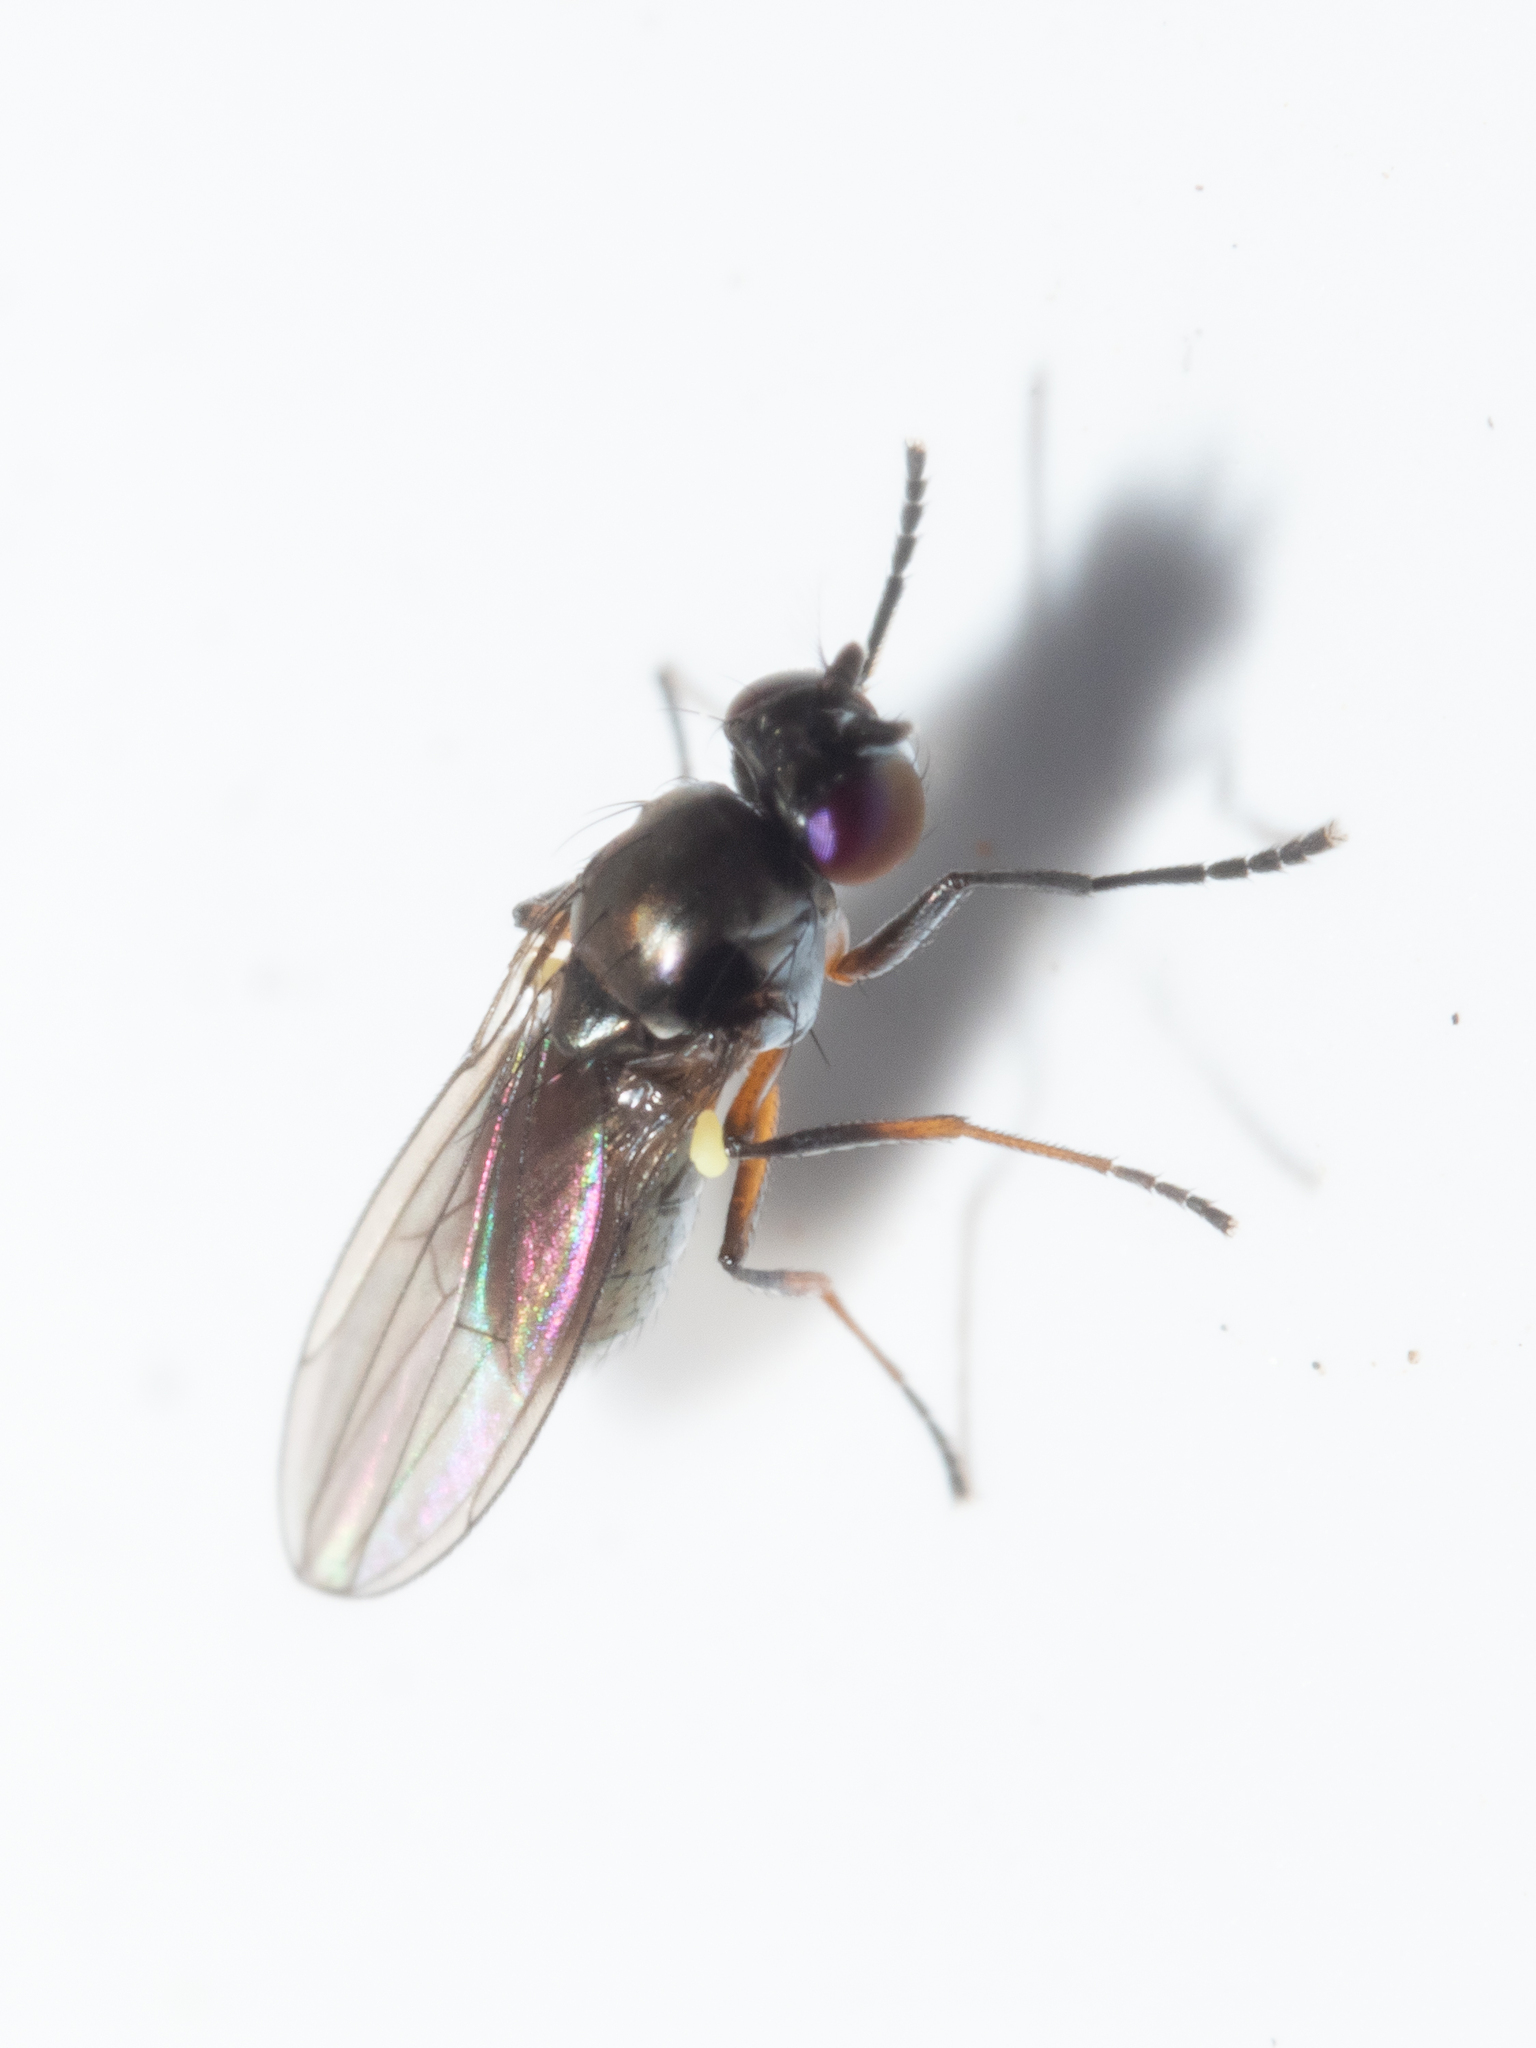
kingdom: Animalia
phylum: Arthropoda
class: Insecta
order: Diptera
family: Ephydridae
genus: Hydrellia
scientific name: Hydrellia tritici
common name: Shore fly
